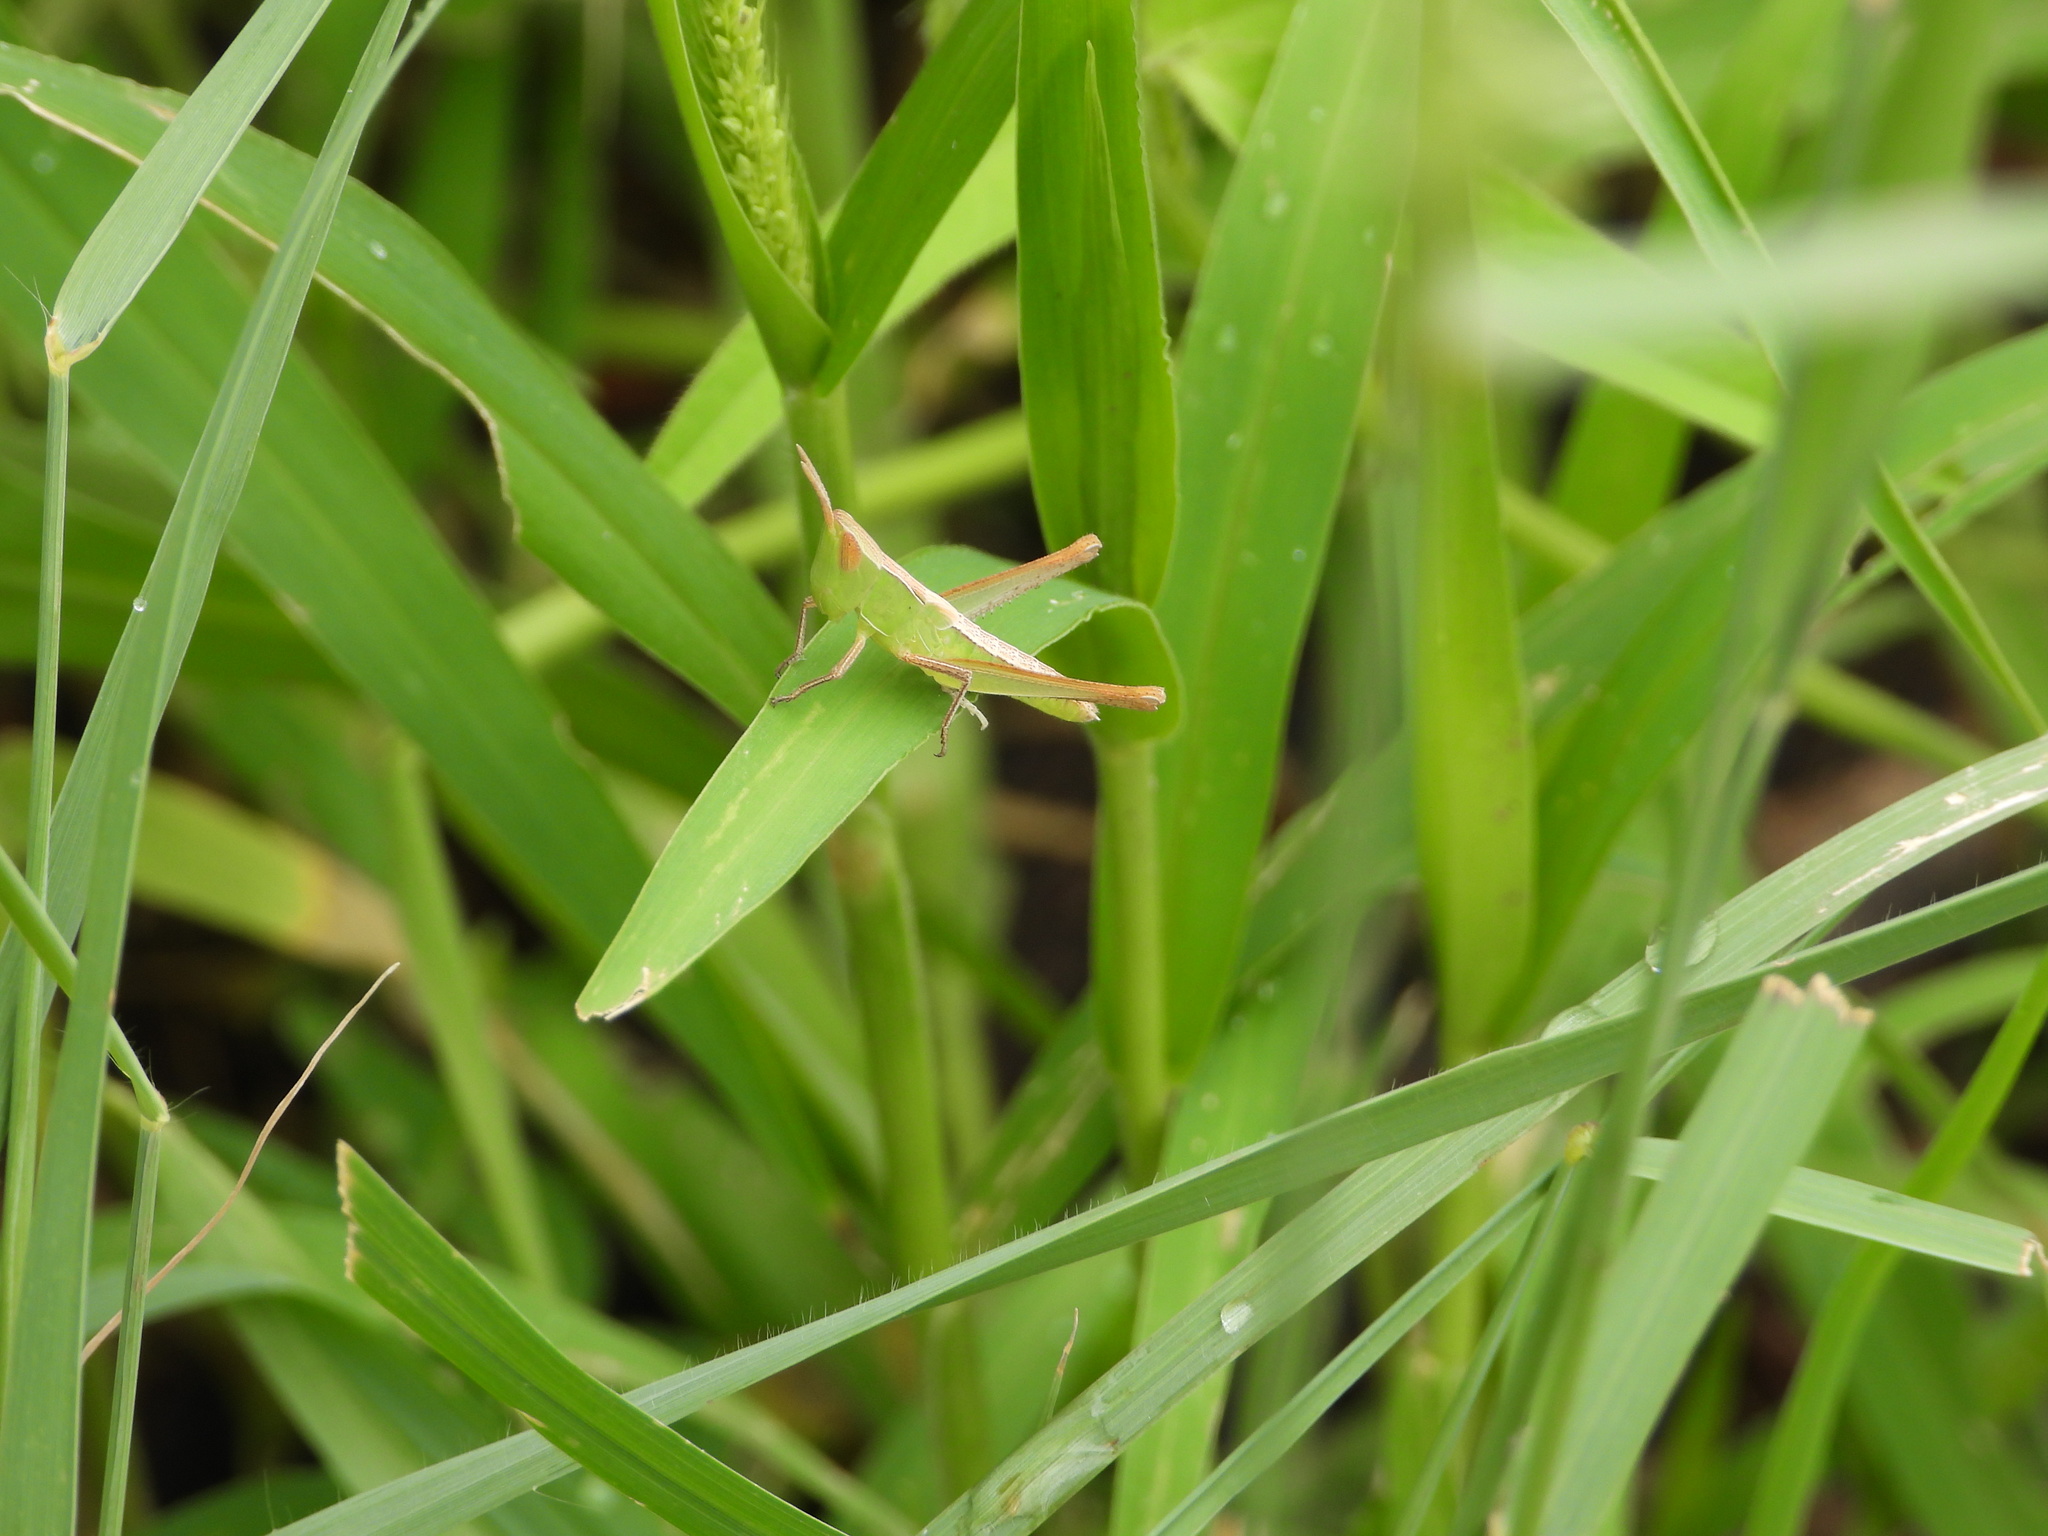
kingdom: Animalia
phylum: Arthropoda
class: Insecta
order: Orthoptera
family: Acrididae
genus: Syrbula
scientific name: Syrbula montezuma
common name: Montezuma's grasshopper
